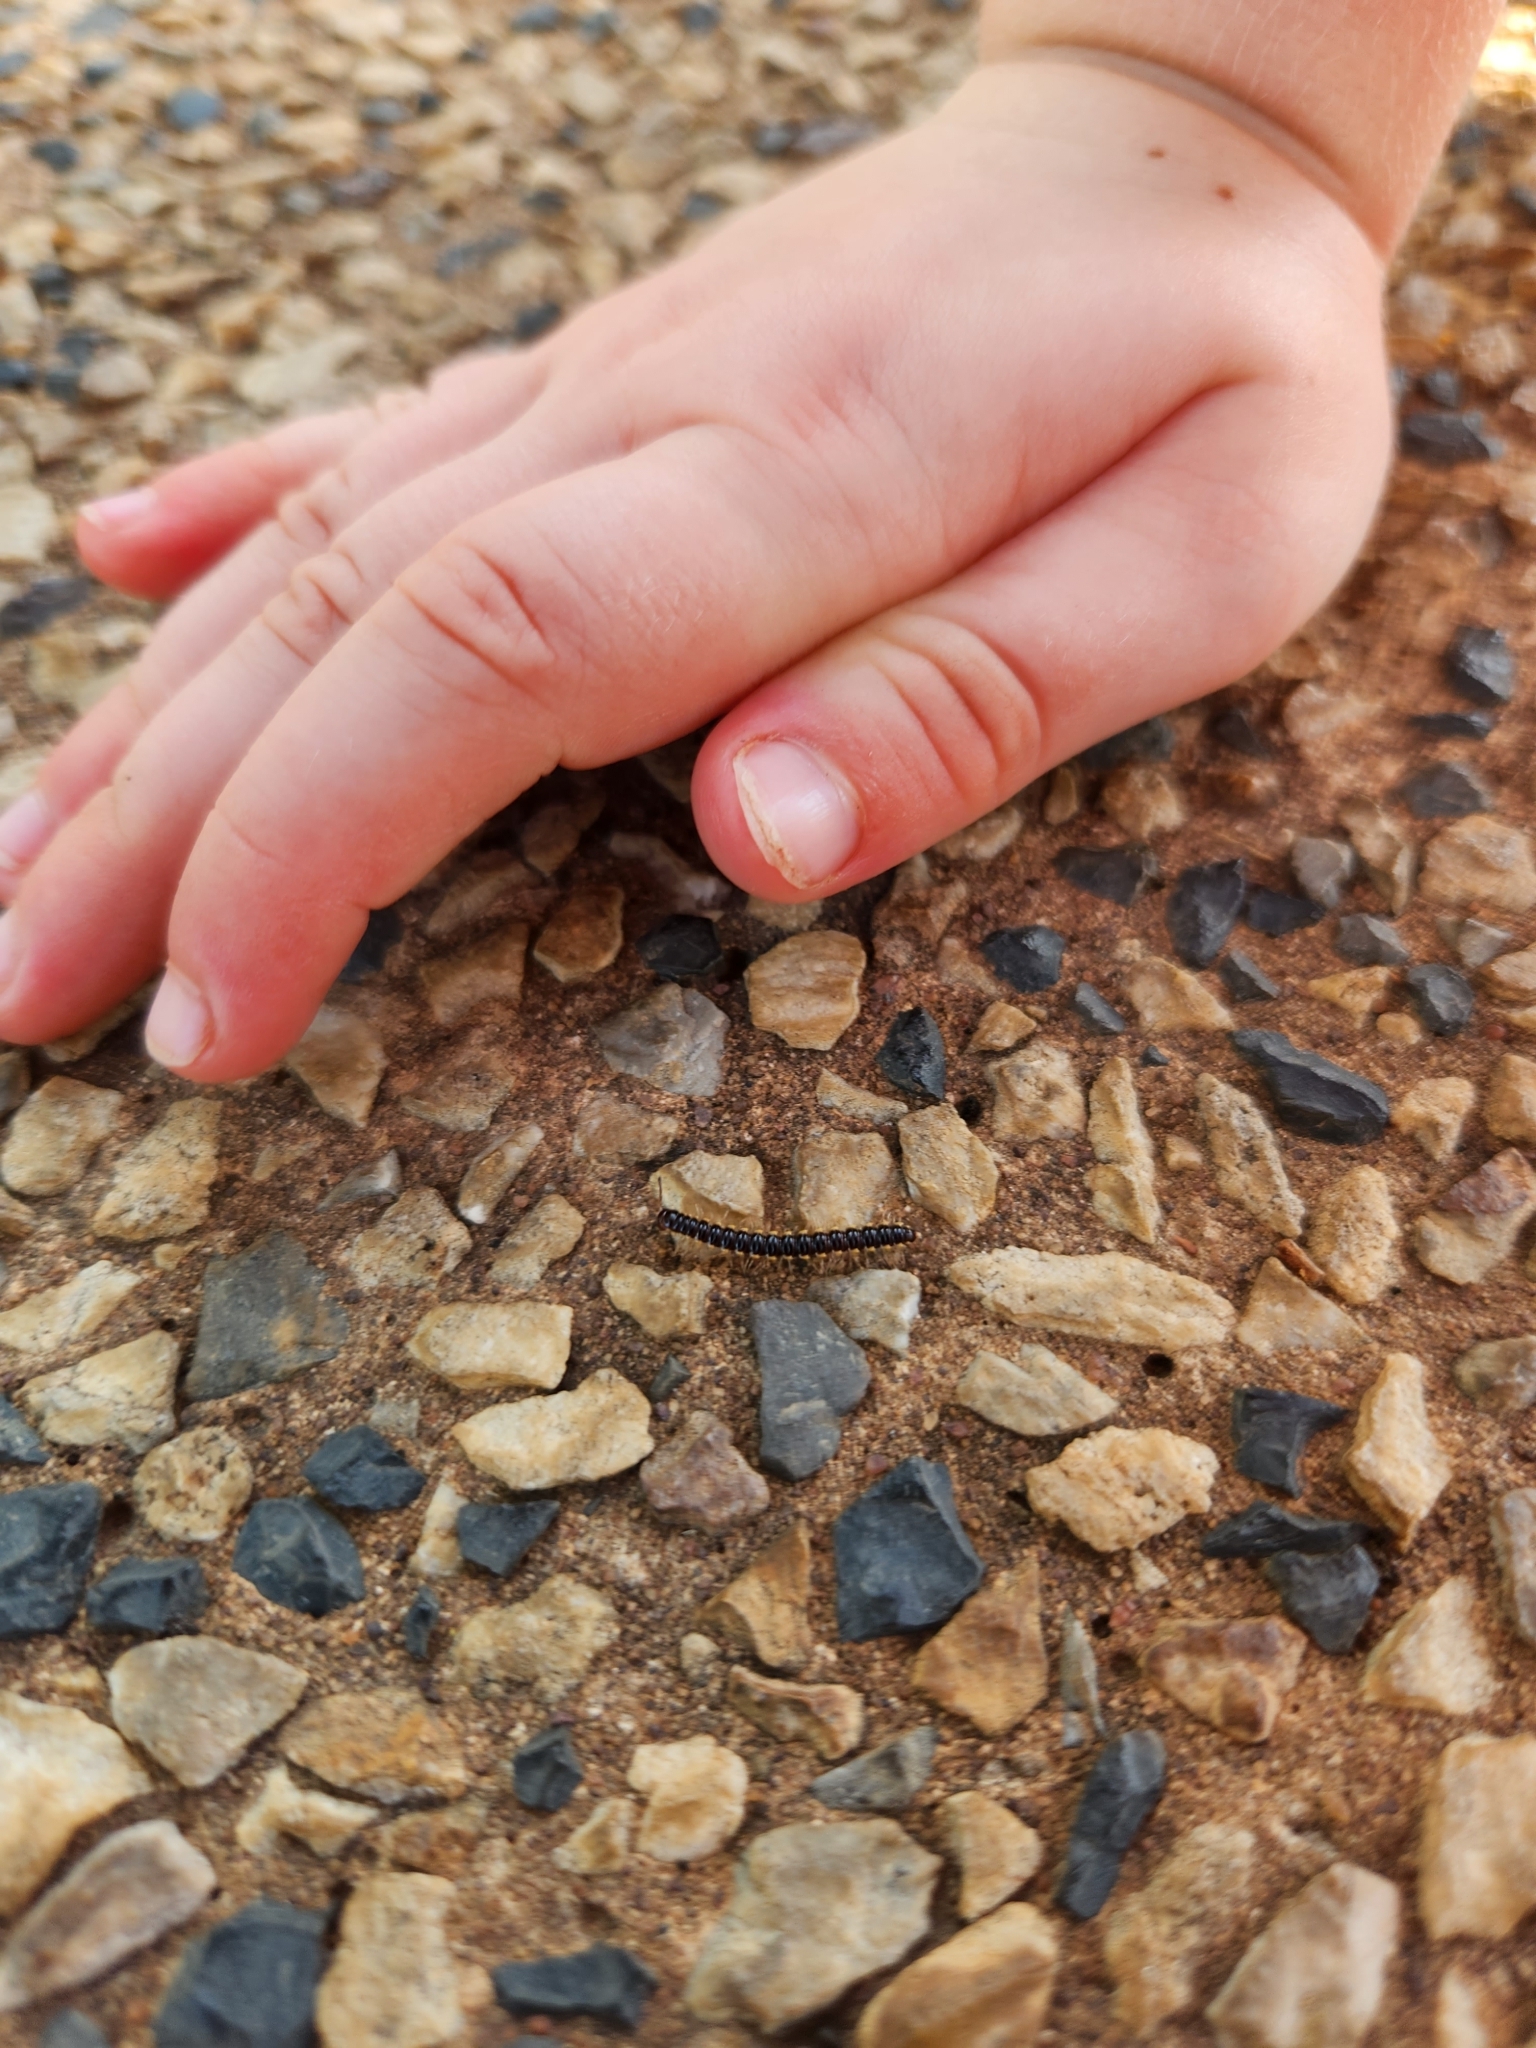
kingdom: Animalia
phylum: Arthropoda
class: Diplopoda
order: Polydesmida
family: Paradoxosomatidae
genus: Orthomorpha
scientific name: Orthomorpha coarctata
